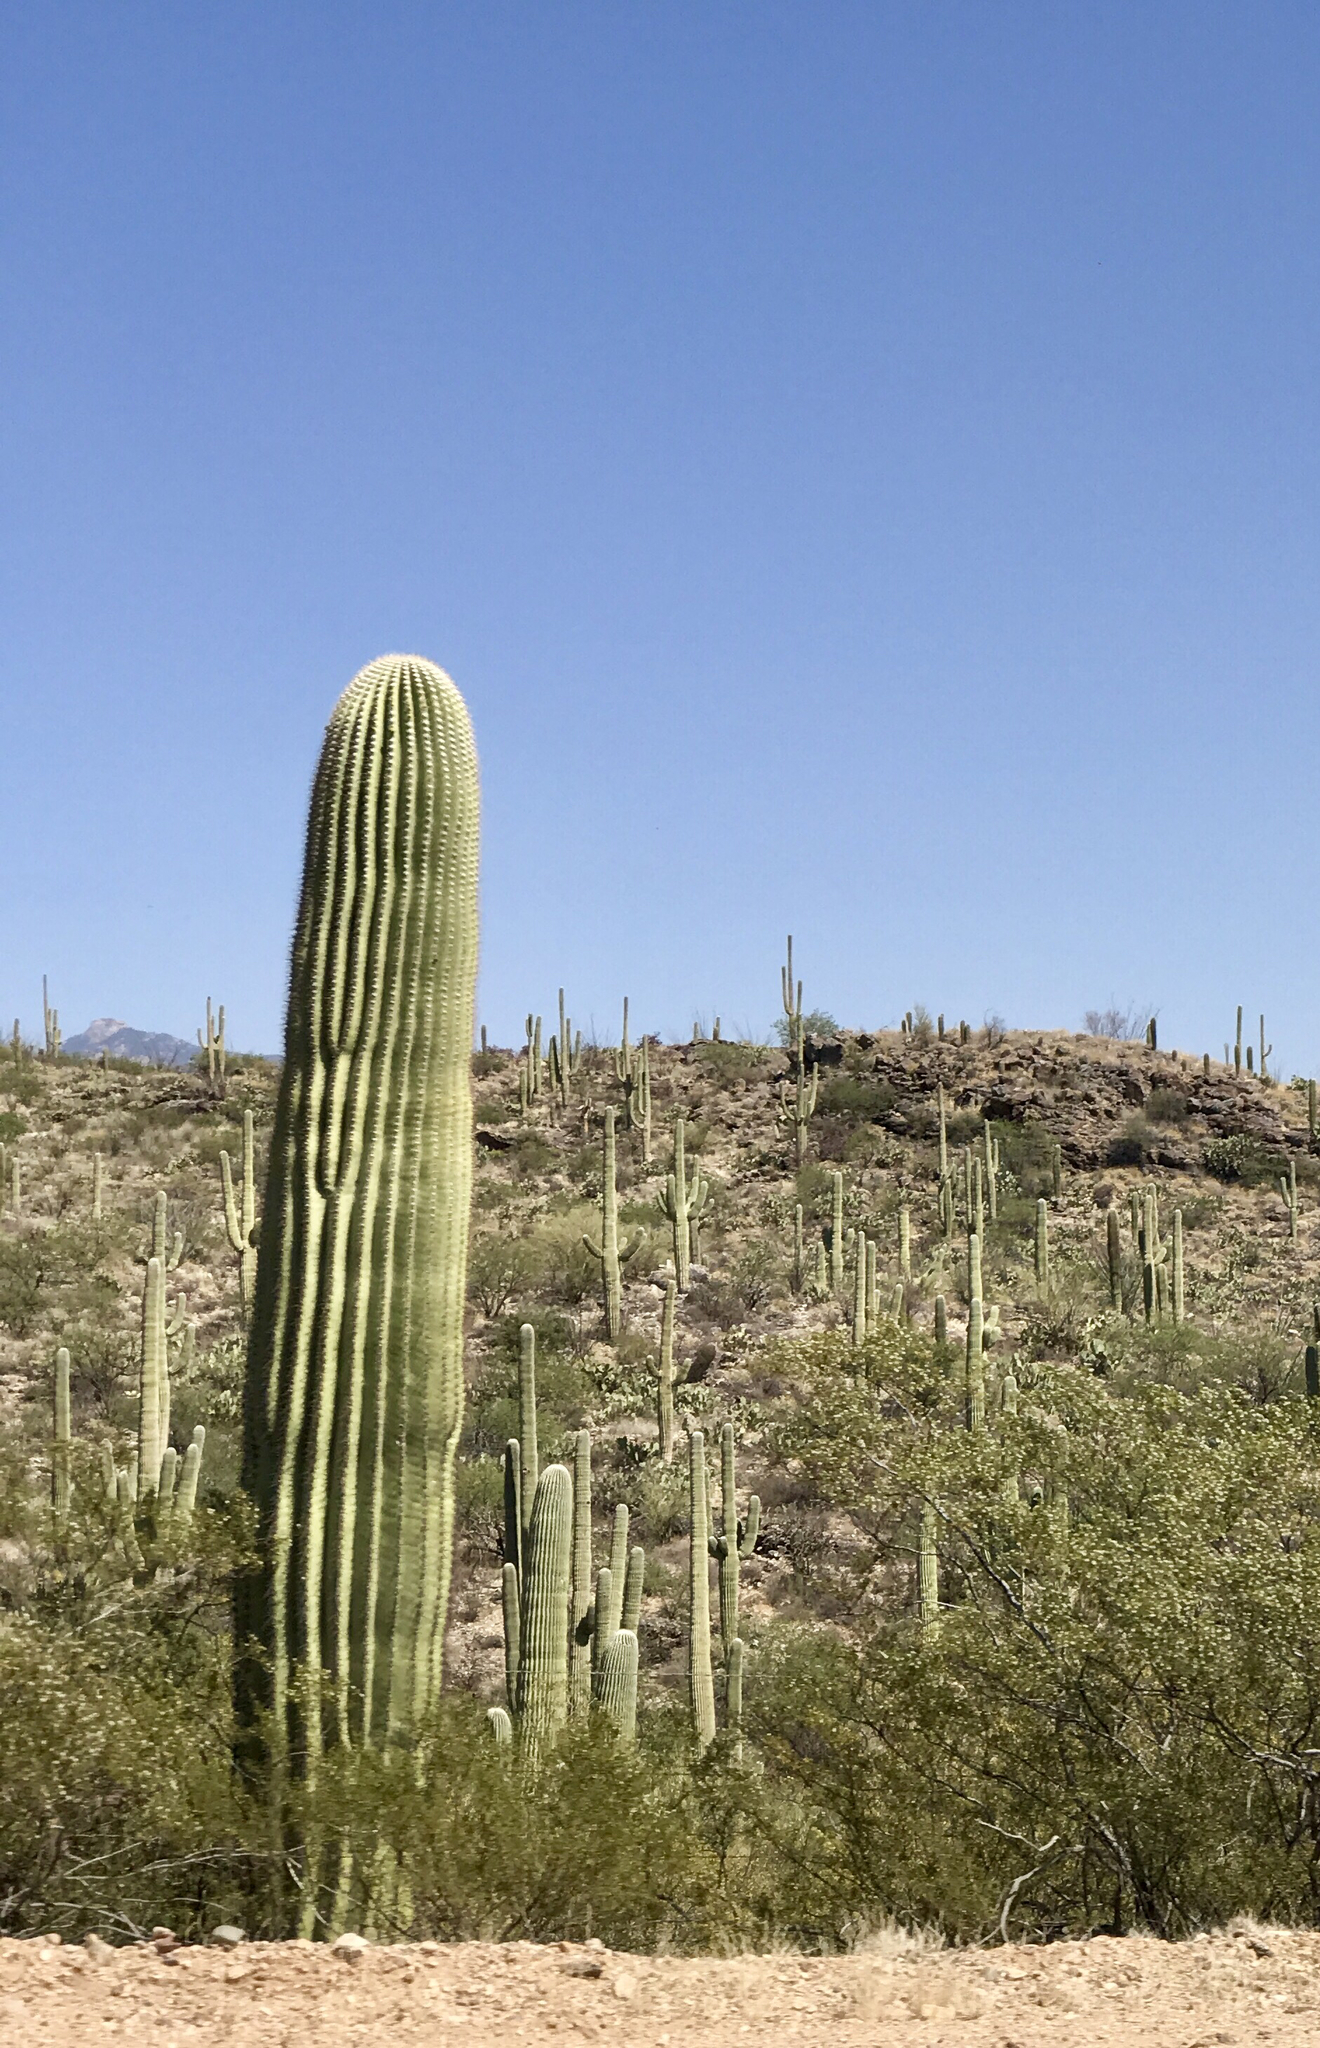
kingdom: Plantae
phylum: Tracheophyta
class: Magnoliopsida
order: Caryophyllales
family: Cactaceae
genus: Carnegiea
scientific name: Carnegiea gigantea
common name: Saguaro
